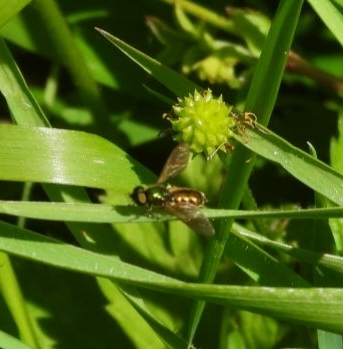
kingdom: Animalia
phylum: Arthropoda
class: Insecta
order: Diptera
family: Stratiomyidae
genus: Chloromyia
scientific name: Chloromyia formosa
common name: Soldier fly
